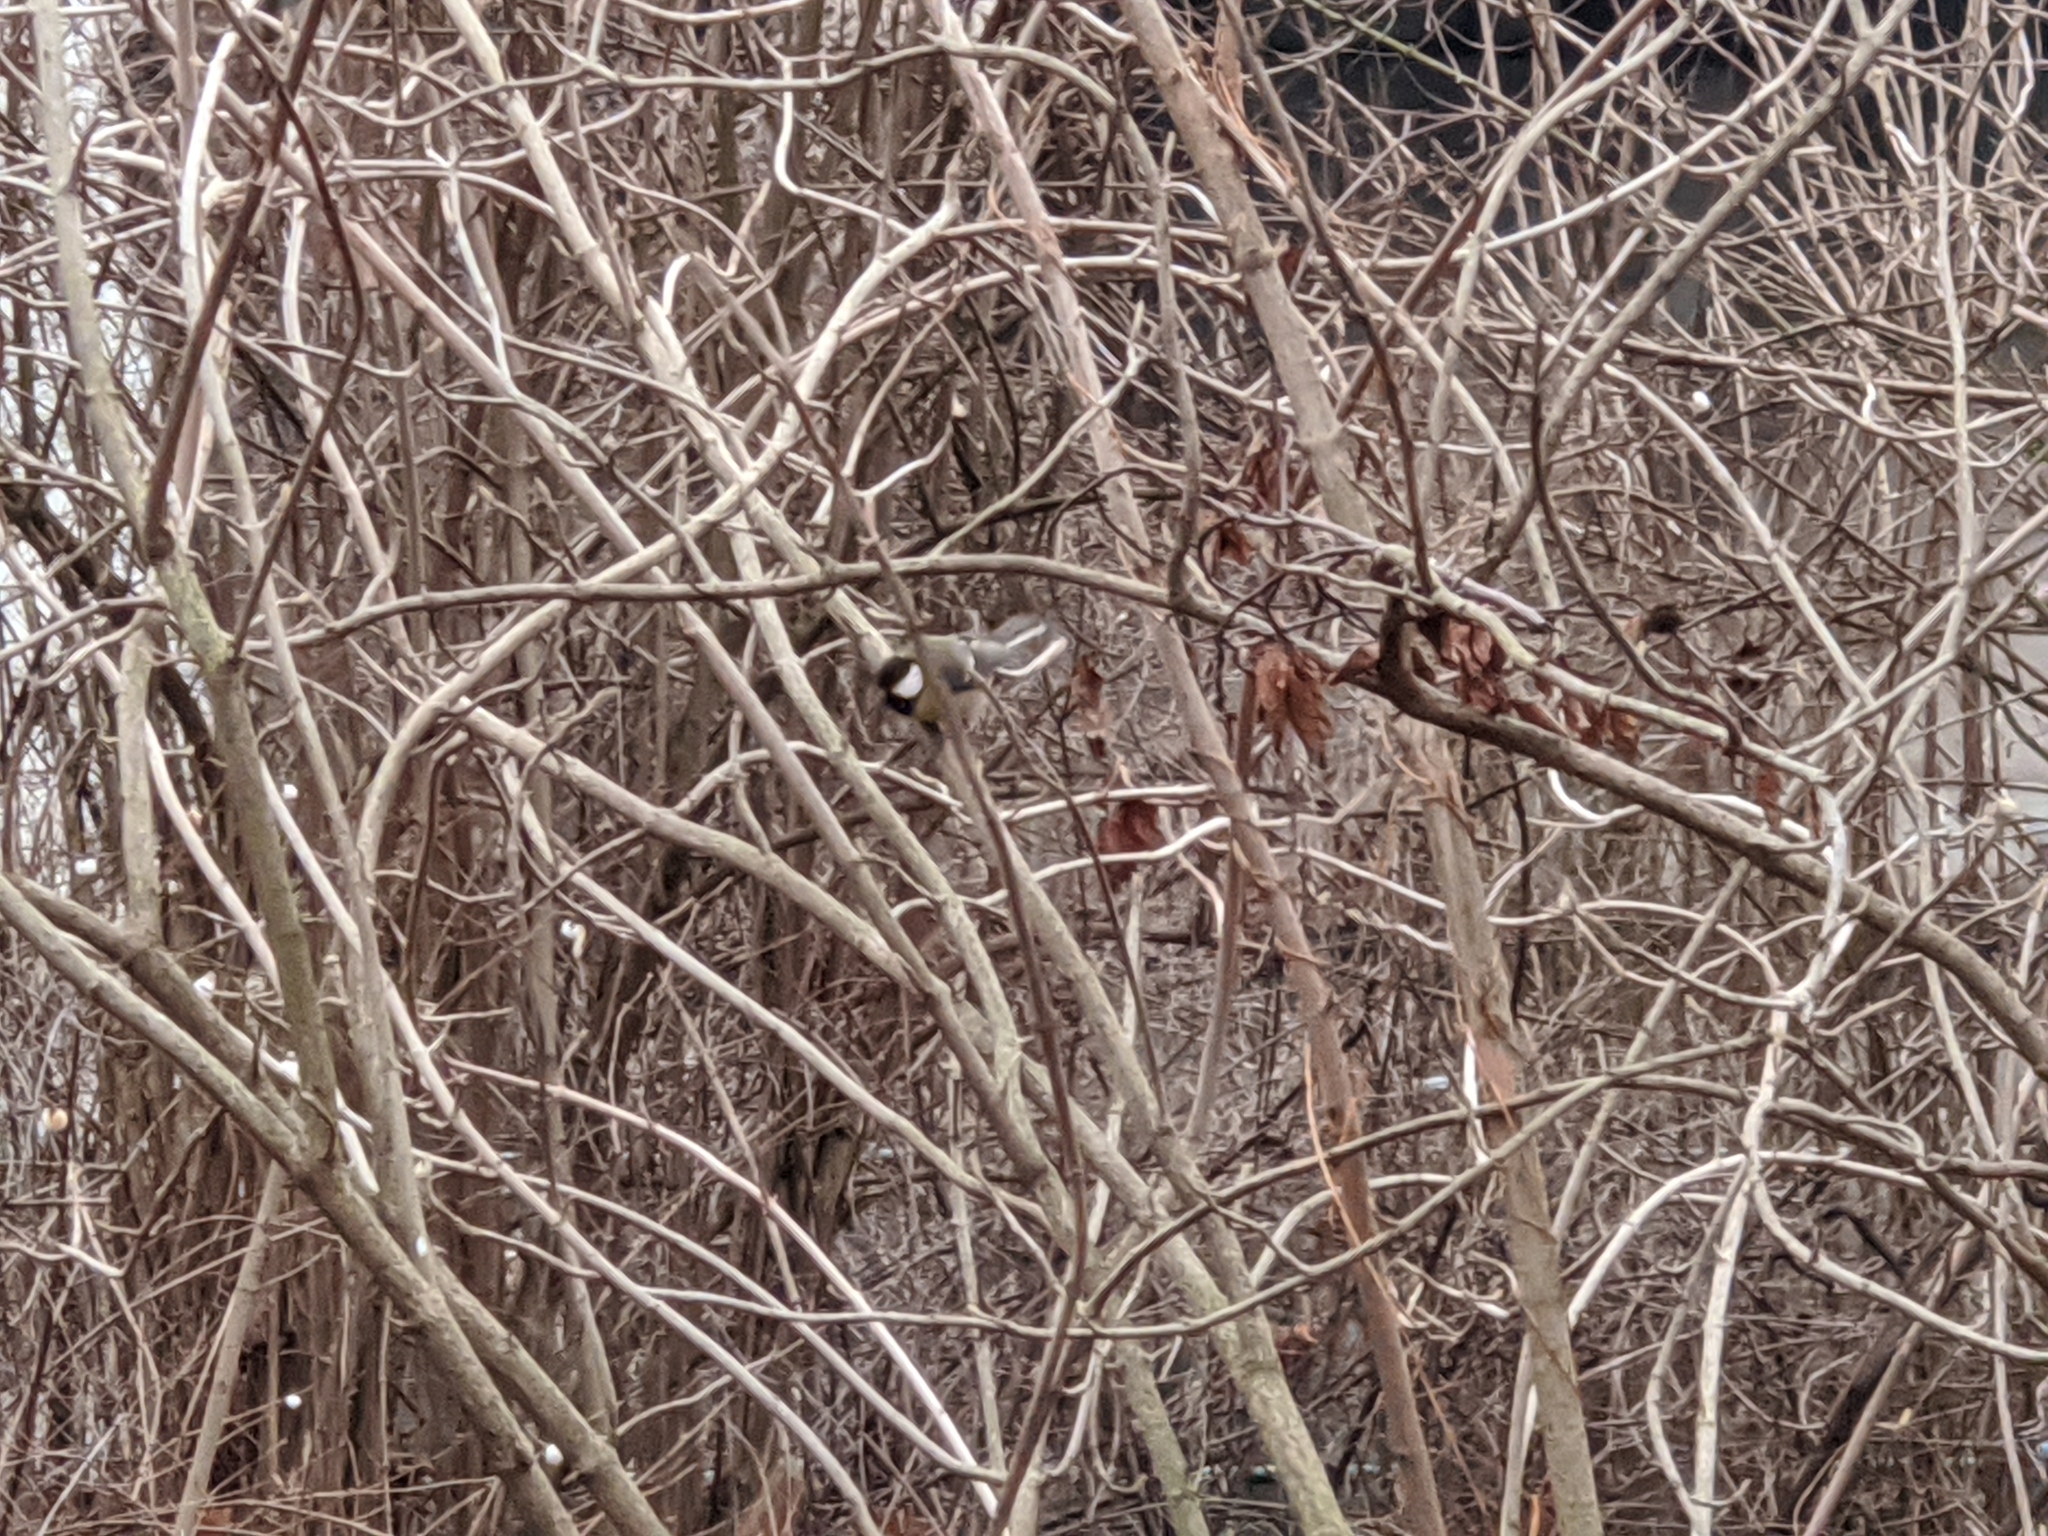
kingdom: Animalia
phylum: Chordata
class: Aves
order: Passeriformes
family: Paridae
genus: Parus
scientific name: Parus major
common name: Great tit
